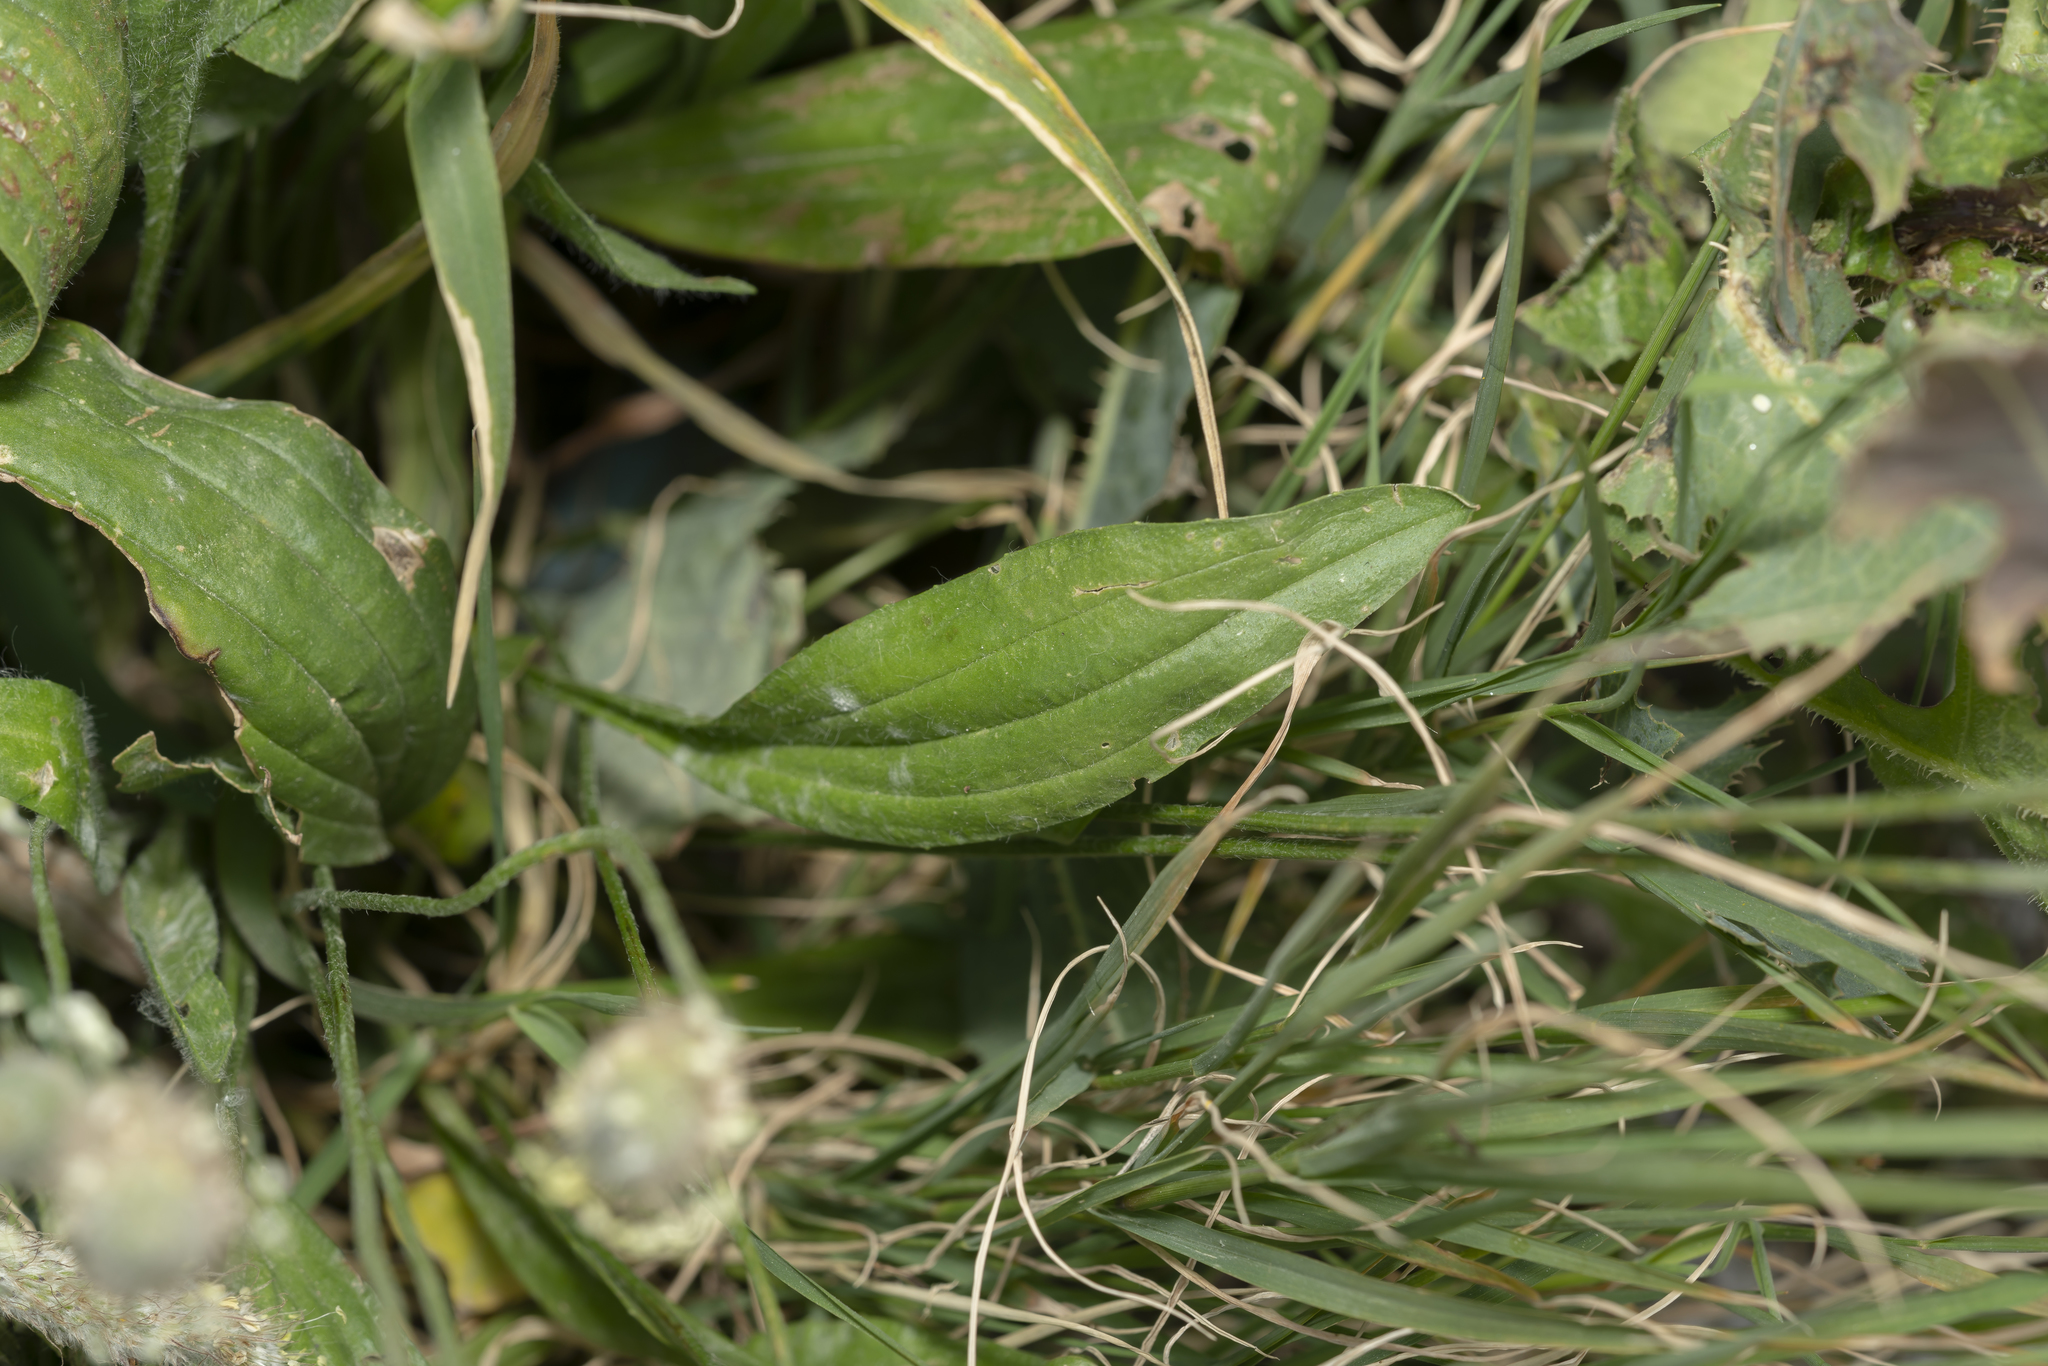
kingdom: Plantae
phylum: Tracheophyta
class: Magnoliopsida
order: Lamiales
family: Plantaginaceae
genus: Plantago
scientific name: Plantago lagopus
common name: Hare-foot plantain
